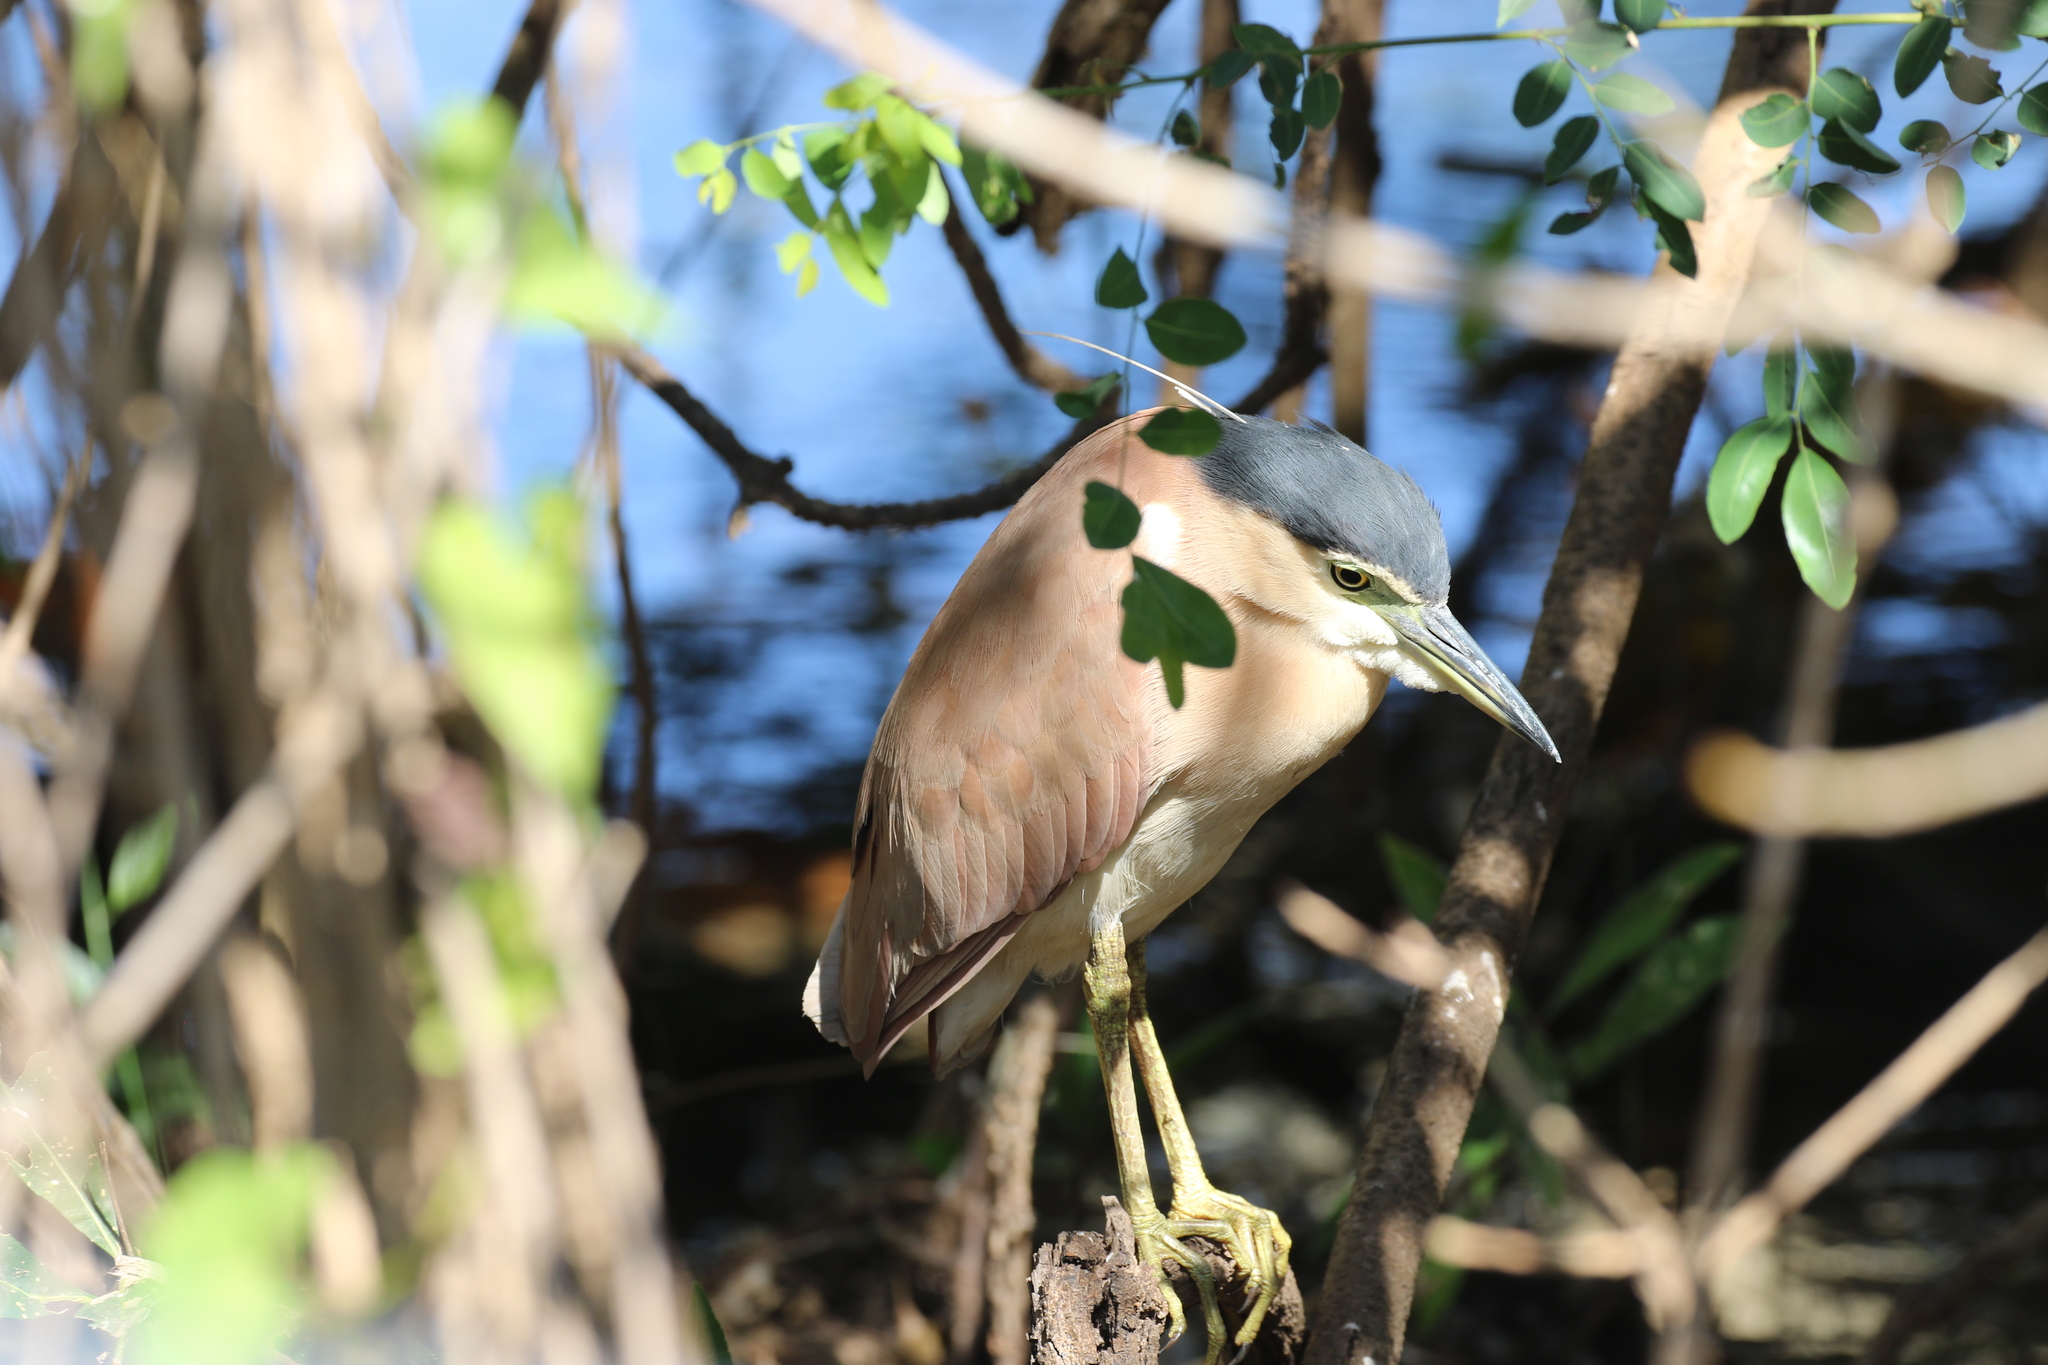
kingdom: Animalia
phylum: Chordata
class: Aves
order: Pelecaniformes
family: Ardeidae
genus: Nycticorax
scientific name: Nycticorax caledonicus
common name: Rufous night-heron
